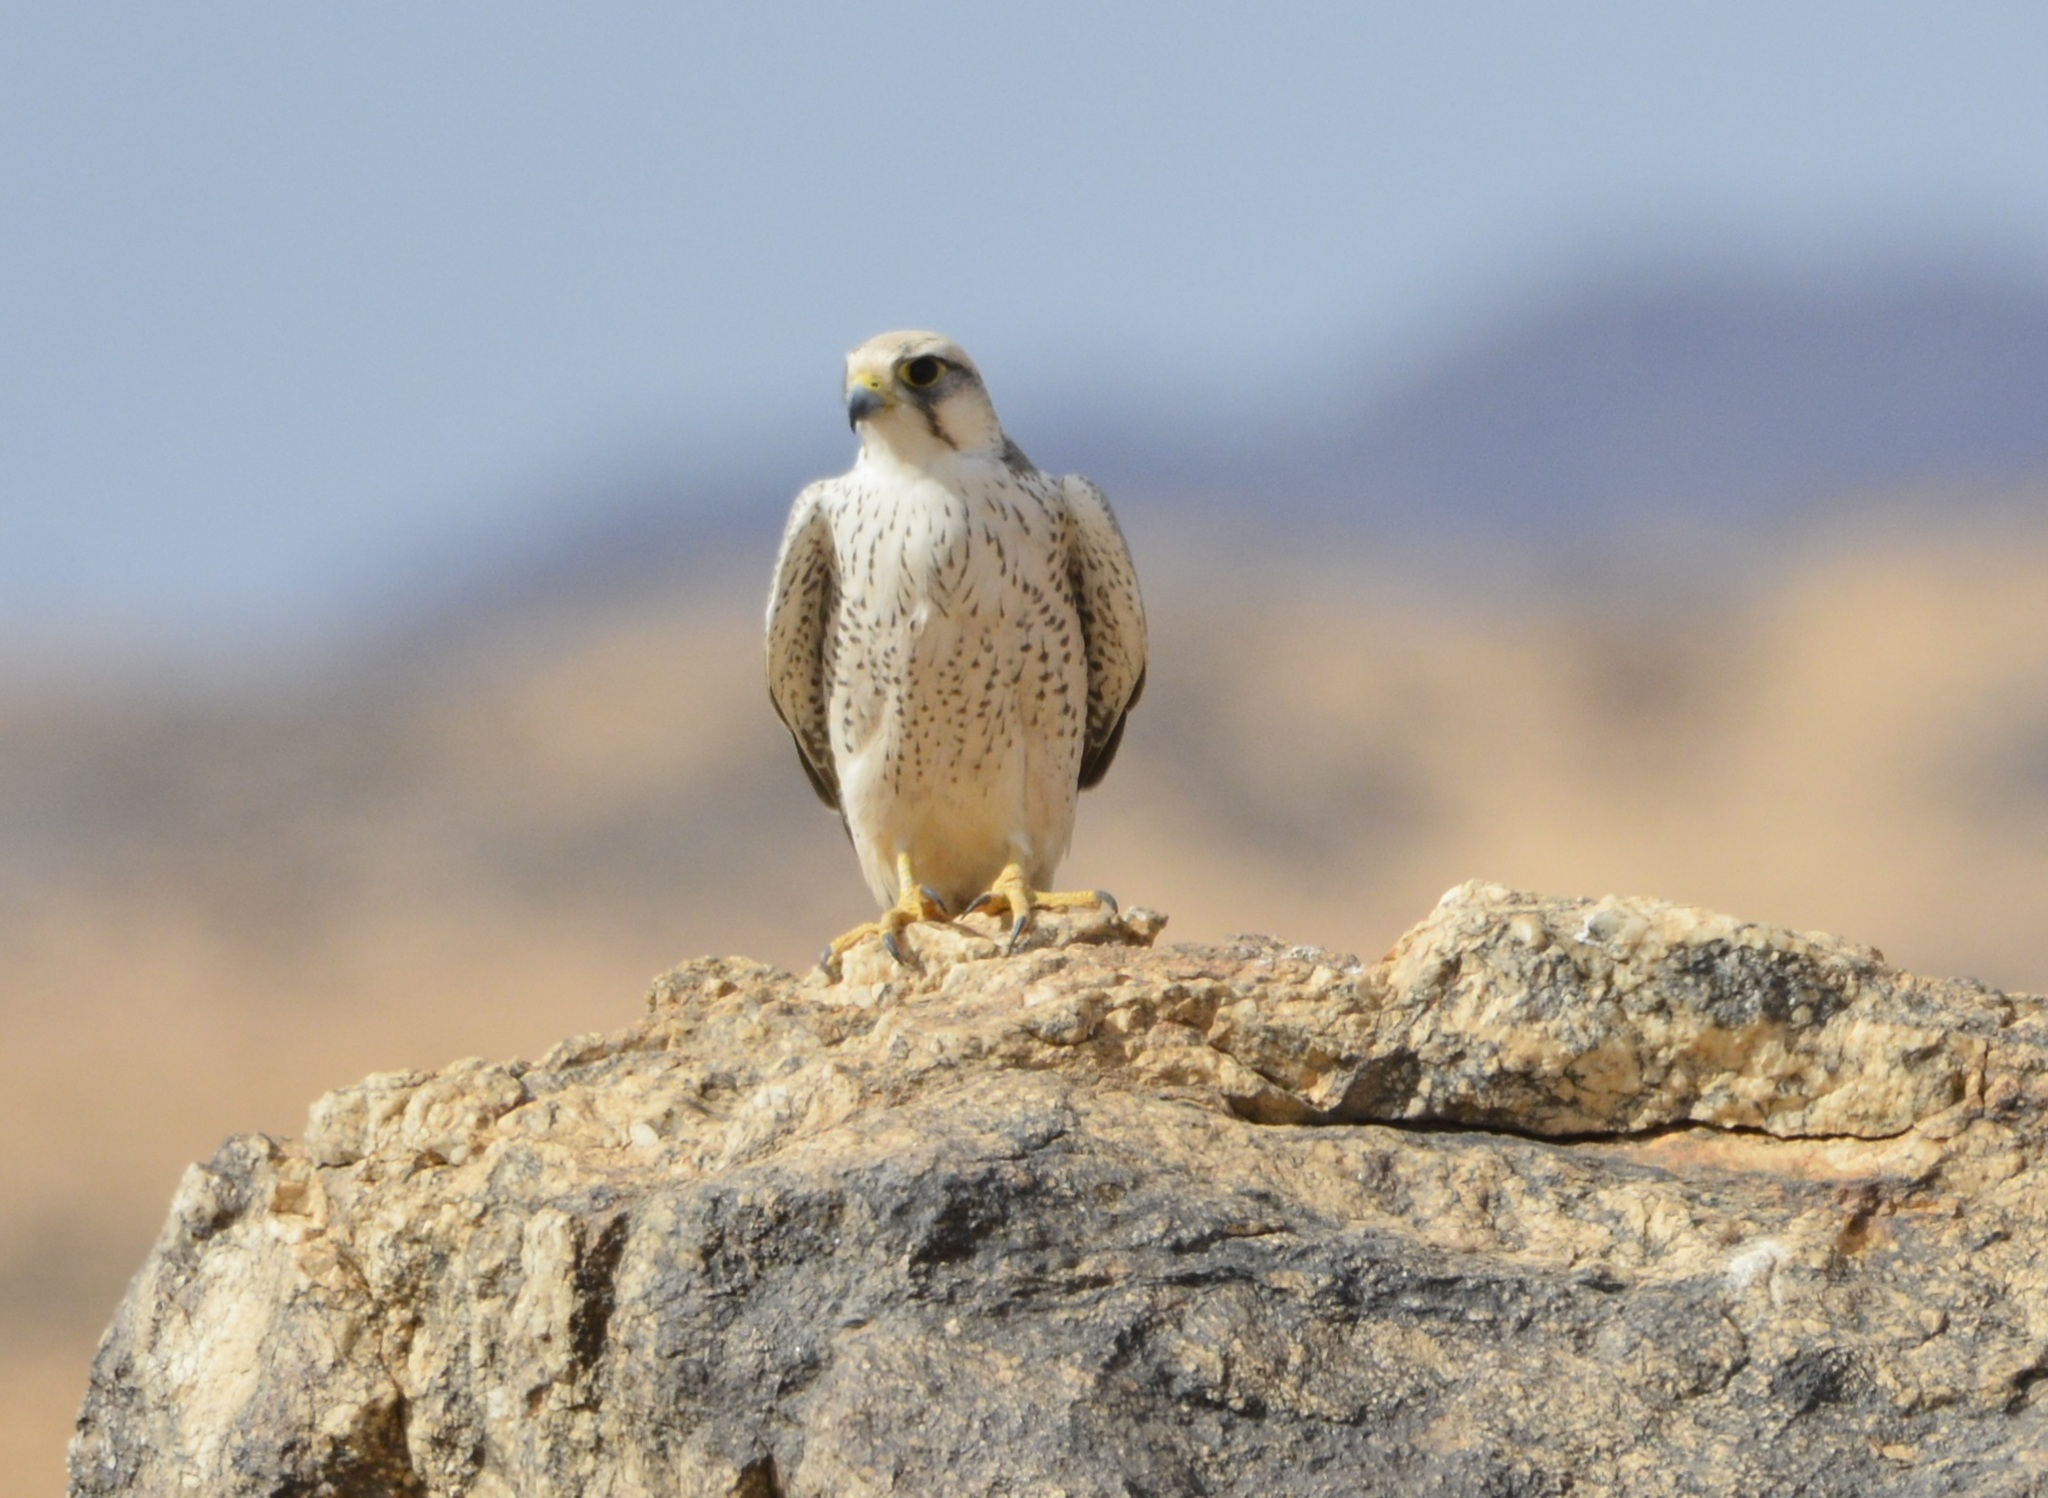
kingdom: Animalia
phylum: Chordata
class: Aves
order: Falconiformes
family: Falconidae
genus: Falco
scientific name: Falco biarmicus
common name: Lanner falcon
